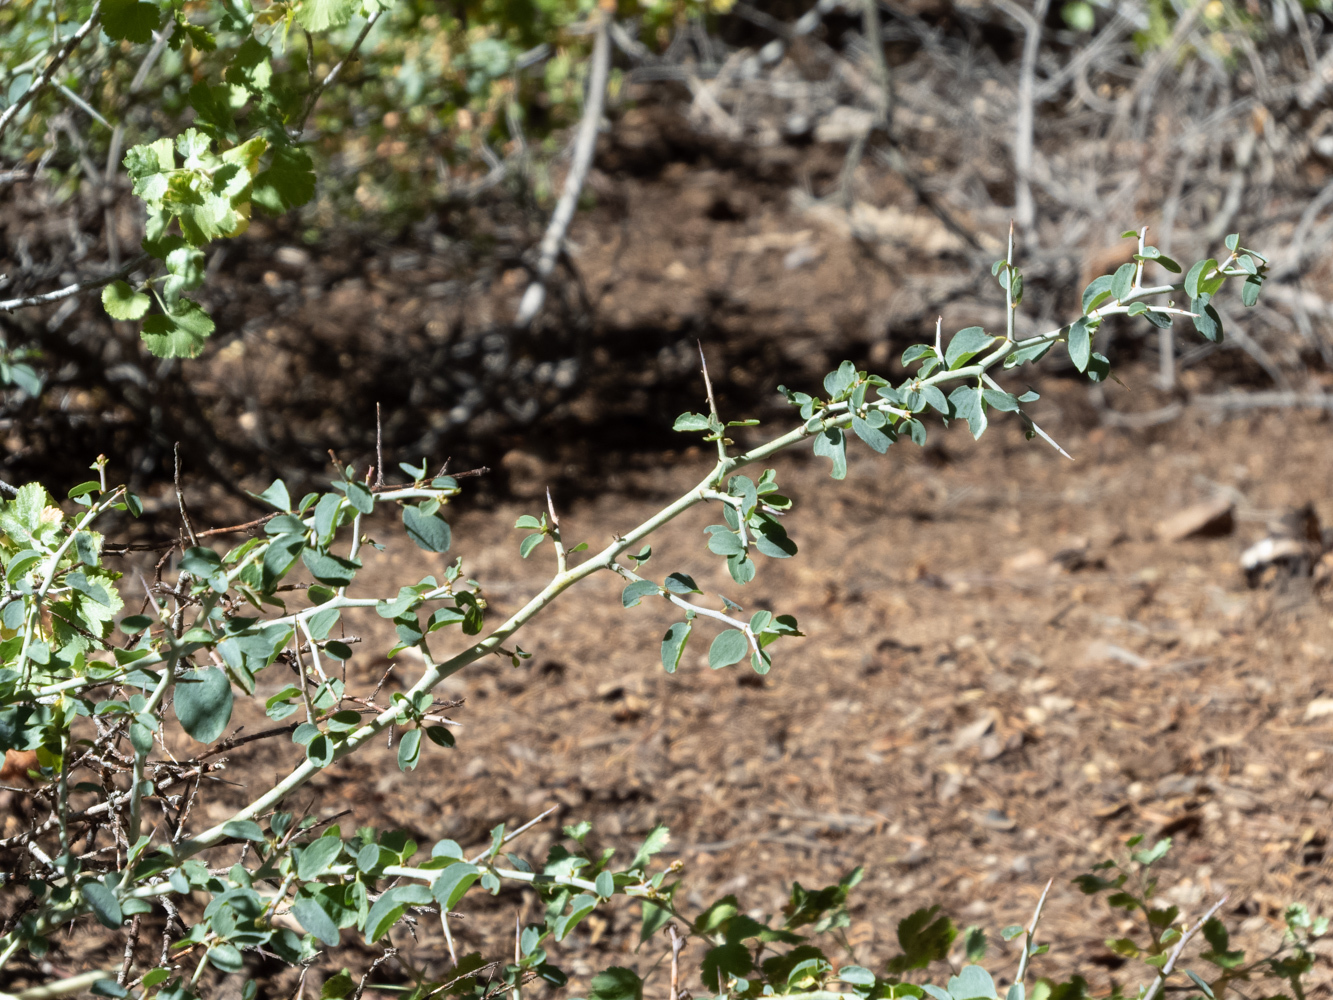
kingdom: Plantae
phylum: Tracheophyta
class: Magnoliopsida
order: Rosales
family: Rhamnaceae
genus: Ceanothus
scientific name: Ceanothus cordulatus
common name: Mountain whitethorn
